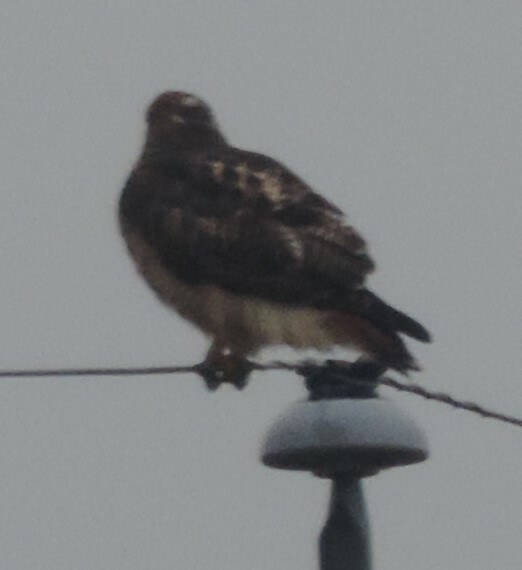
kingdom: Animalia
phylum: Chordata
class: Aves
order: Accipitriformes
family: Accipitridae
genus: Buteo
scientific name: Buteo jamaicensis
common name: Red-tailed hawk
